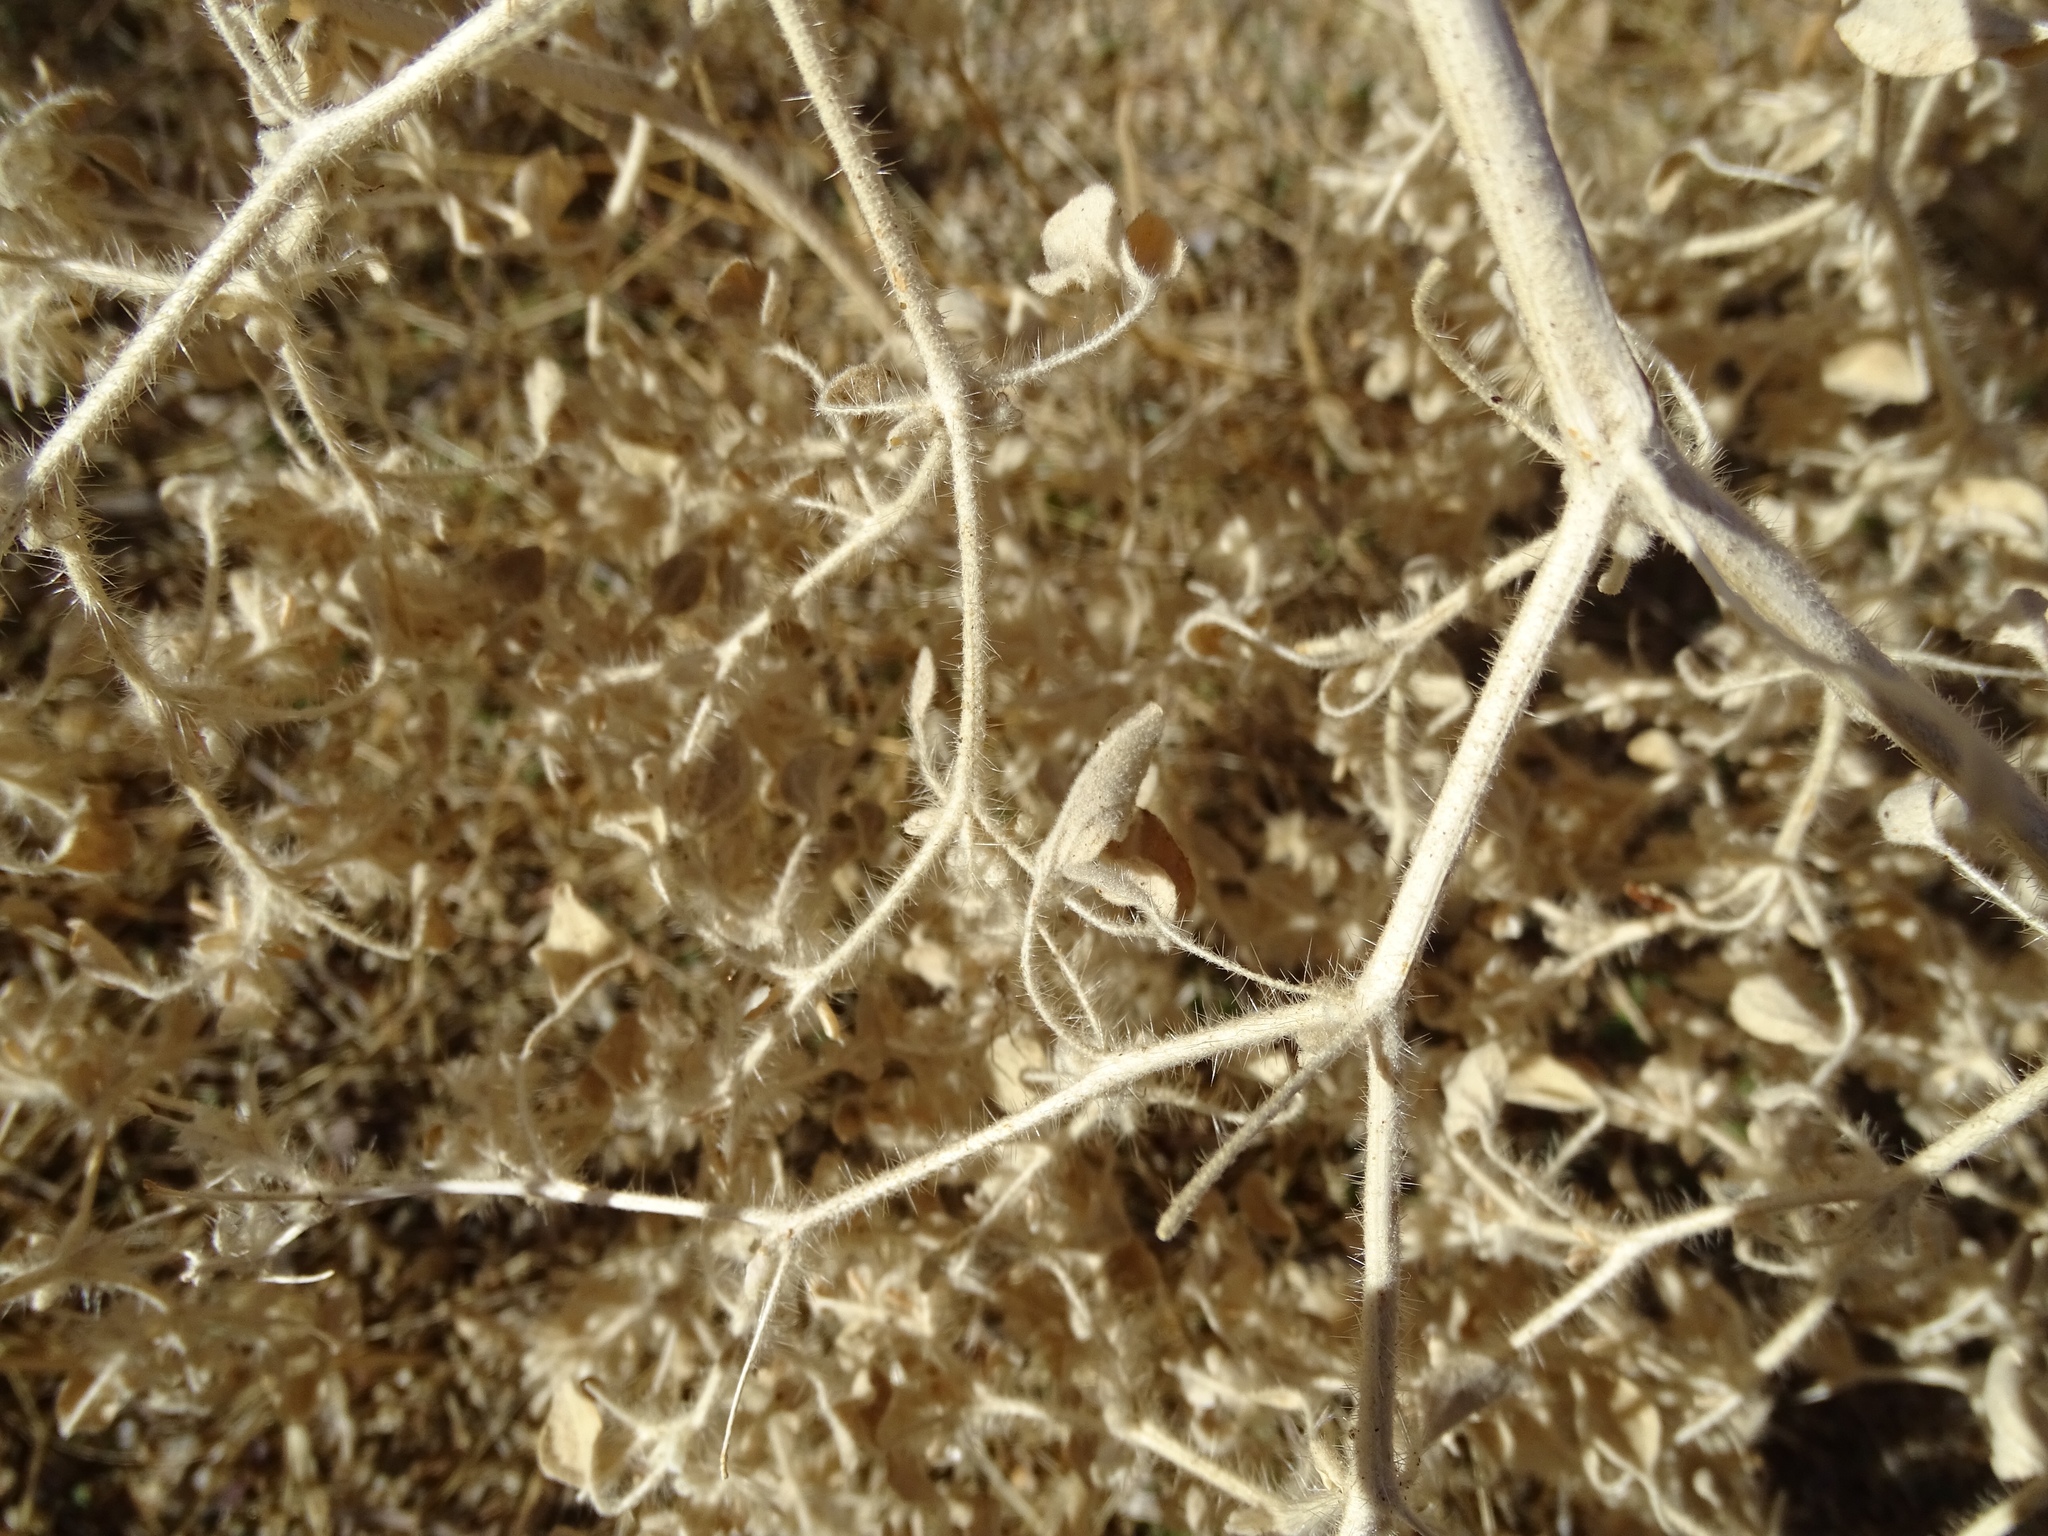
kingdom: Plantae
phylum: Tracheophyta
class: Magnoliopsida
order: Malpighiales
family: Euphorbiaceae
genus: Croton
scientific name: Croton setiger
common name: Dove weed
